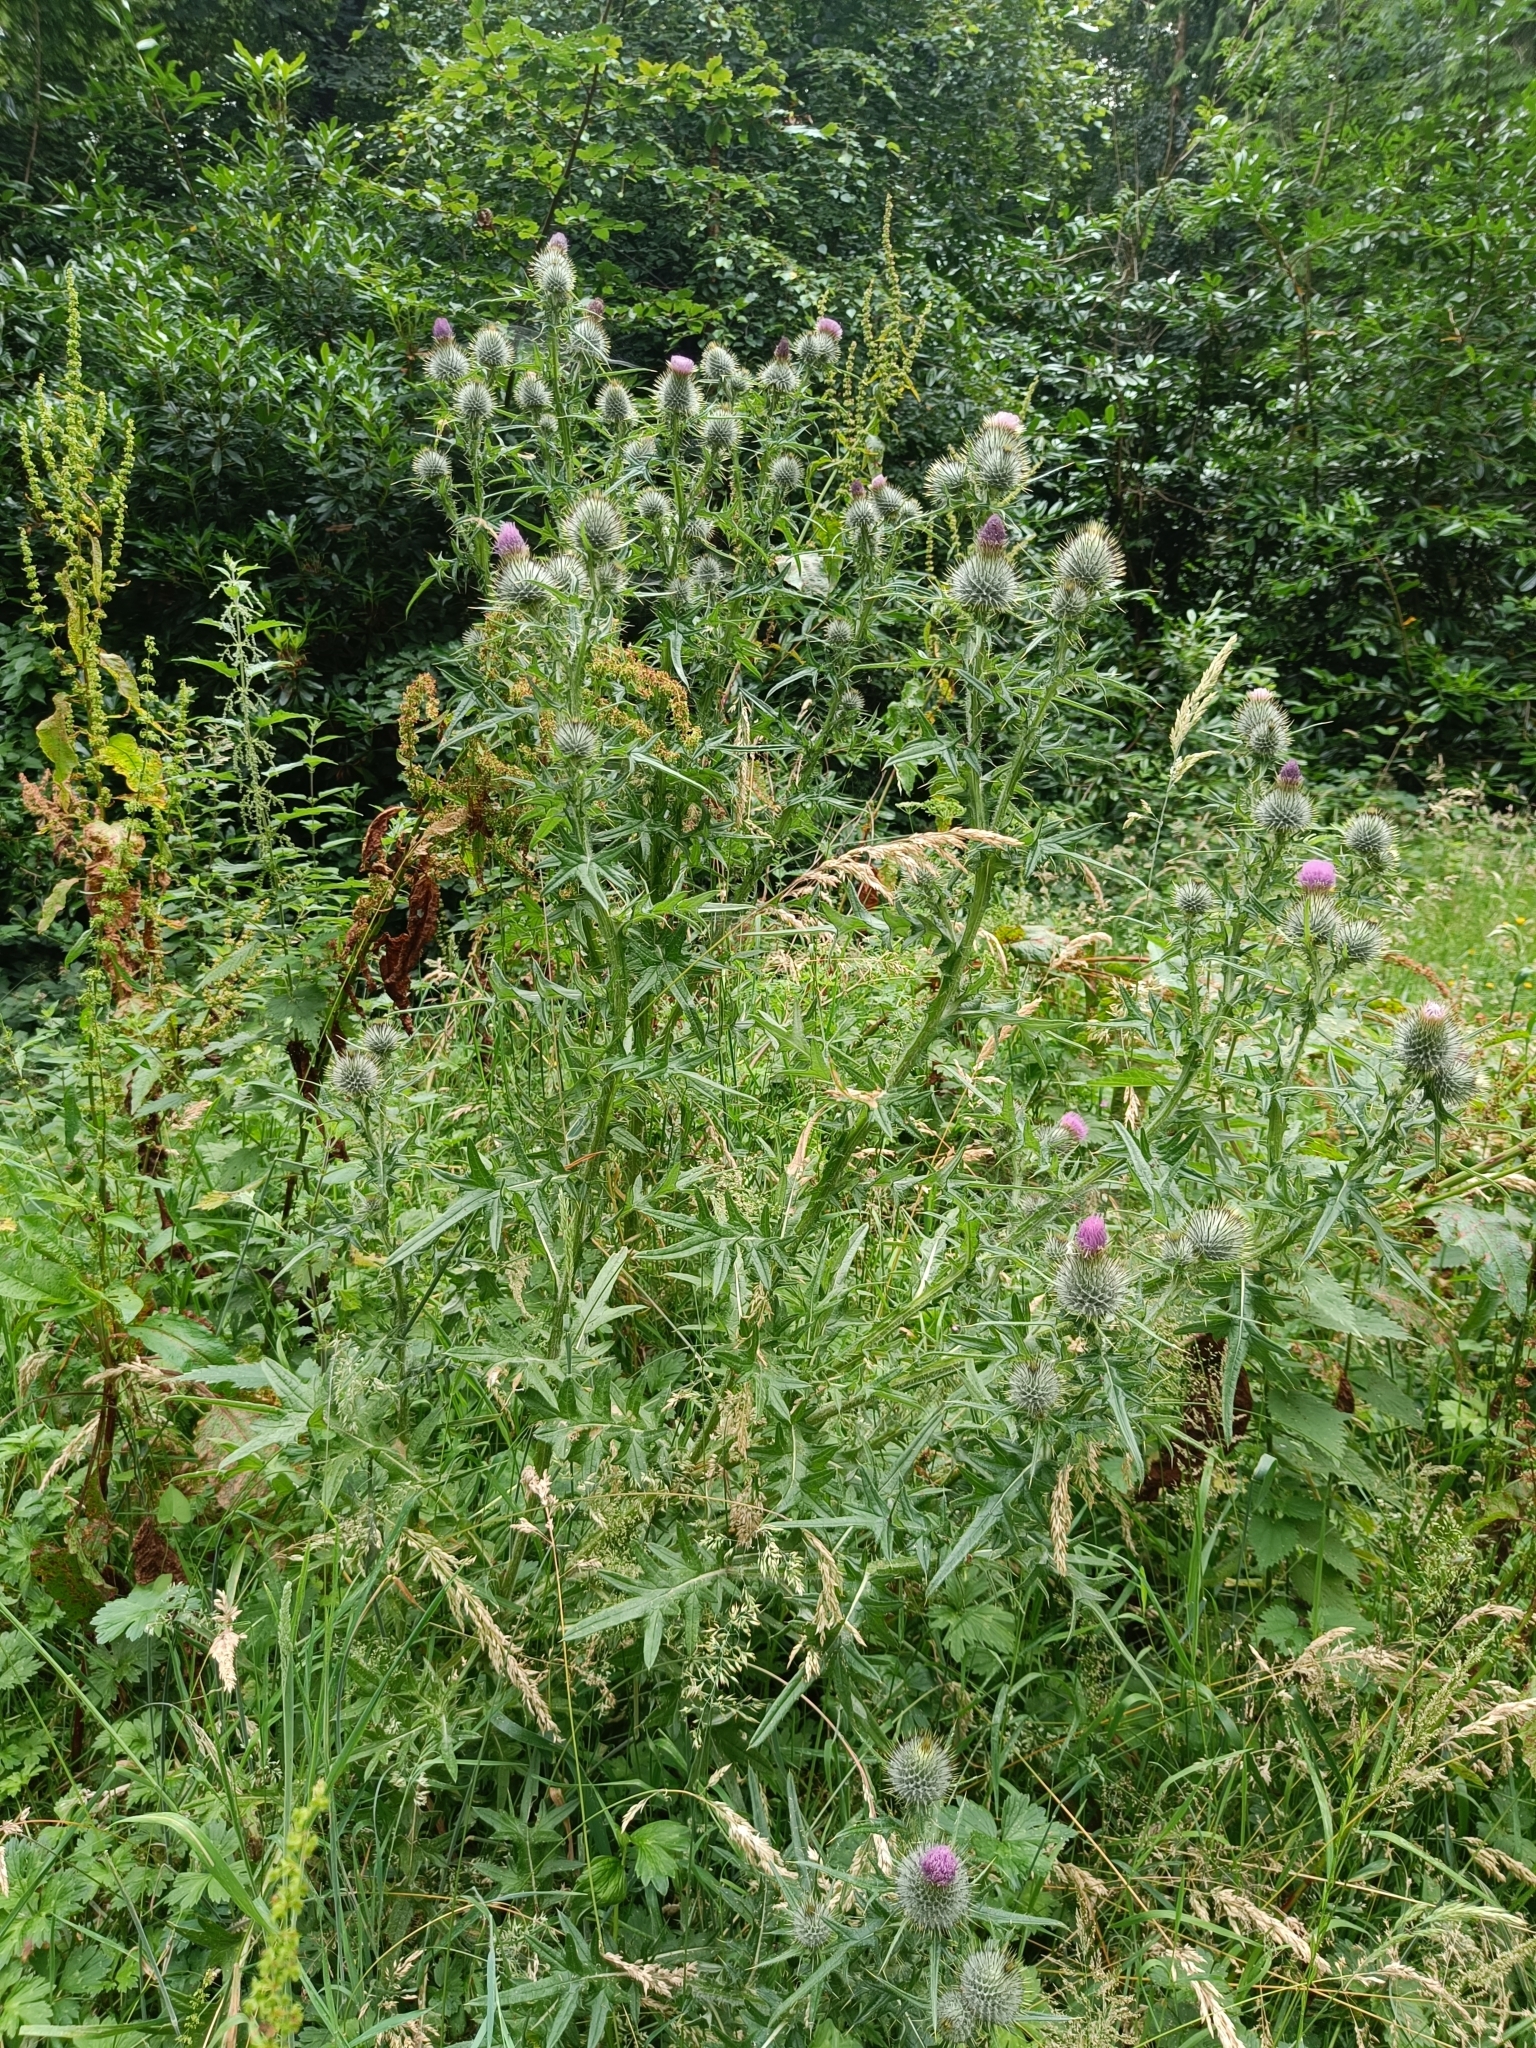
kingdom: Plantae
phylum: Tracheophyta
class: Magnoliopsida
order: Asterales
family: Asteraceae
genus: Cirsium
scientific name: Cirsium vulgare
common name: Bull thistle
